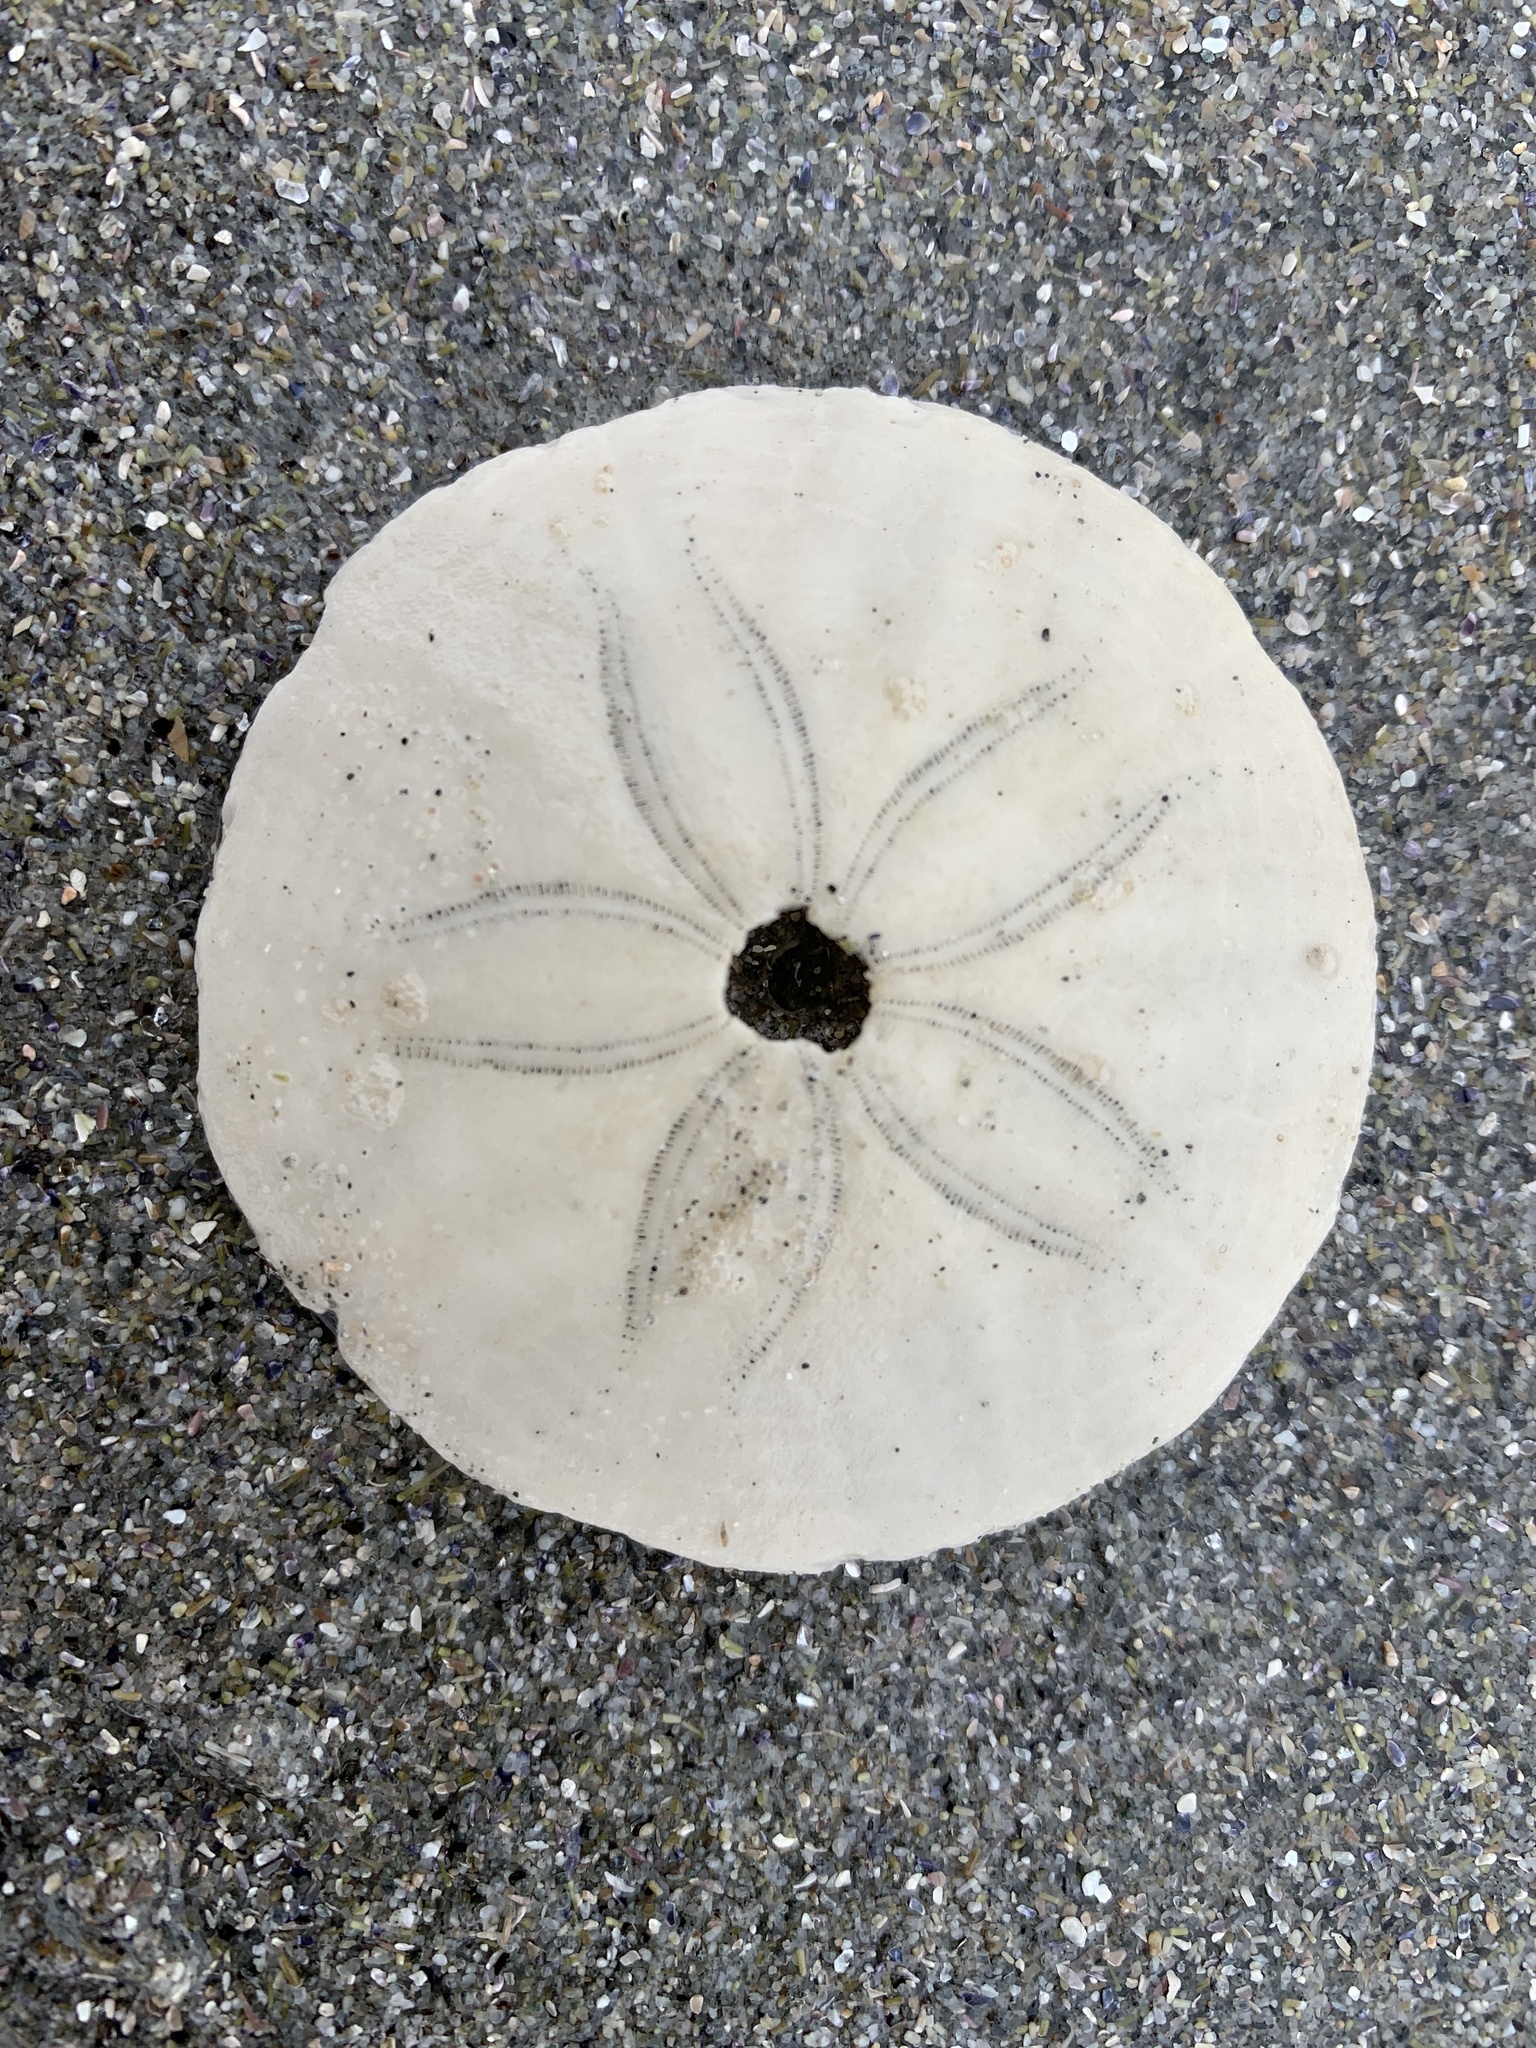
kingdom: Animalia
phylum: Echinodermata
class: Echinoidea
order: Echinolampadacea
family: Echinarachniidae
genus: Echinarachnius
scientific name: Echinarachnius parma
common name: Common sand dollar
